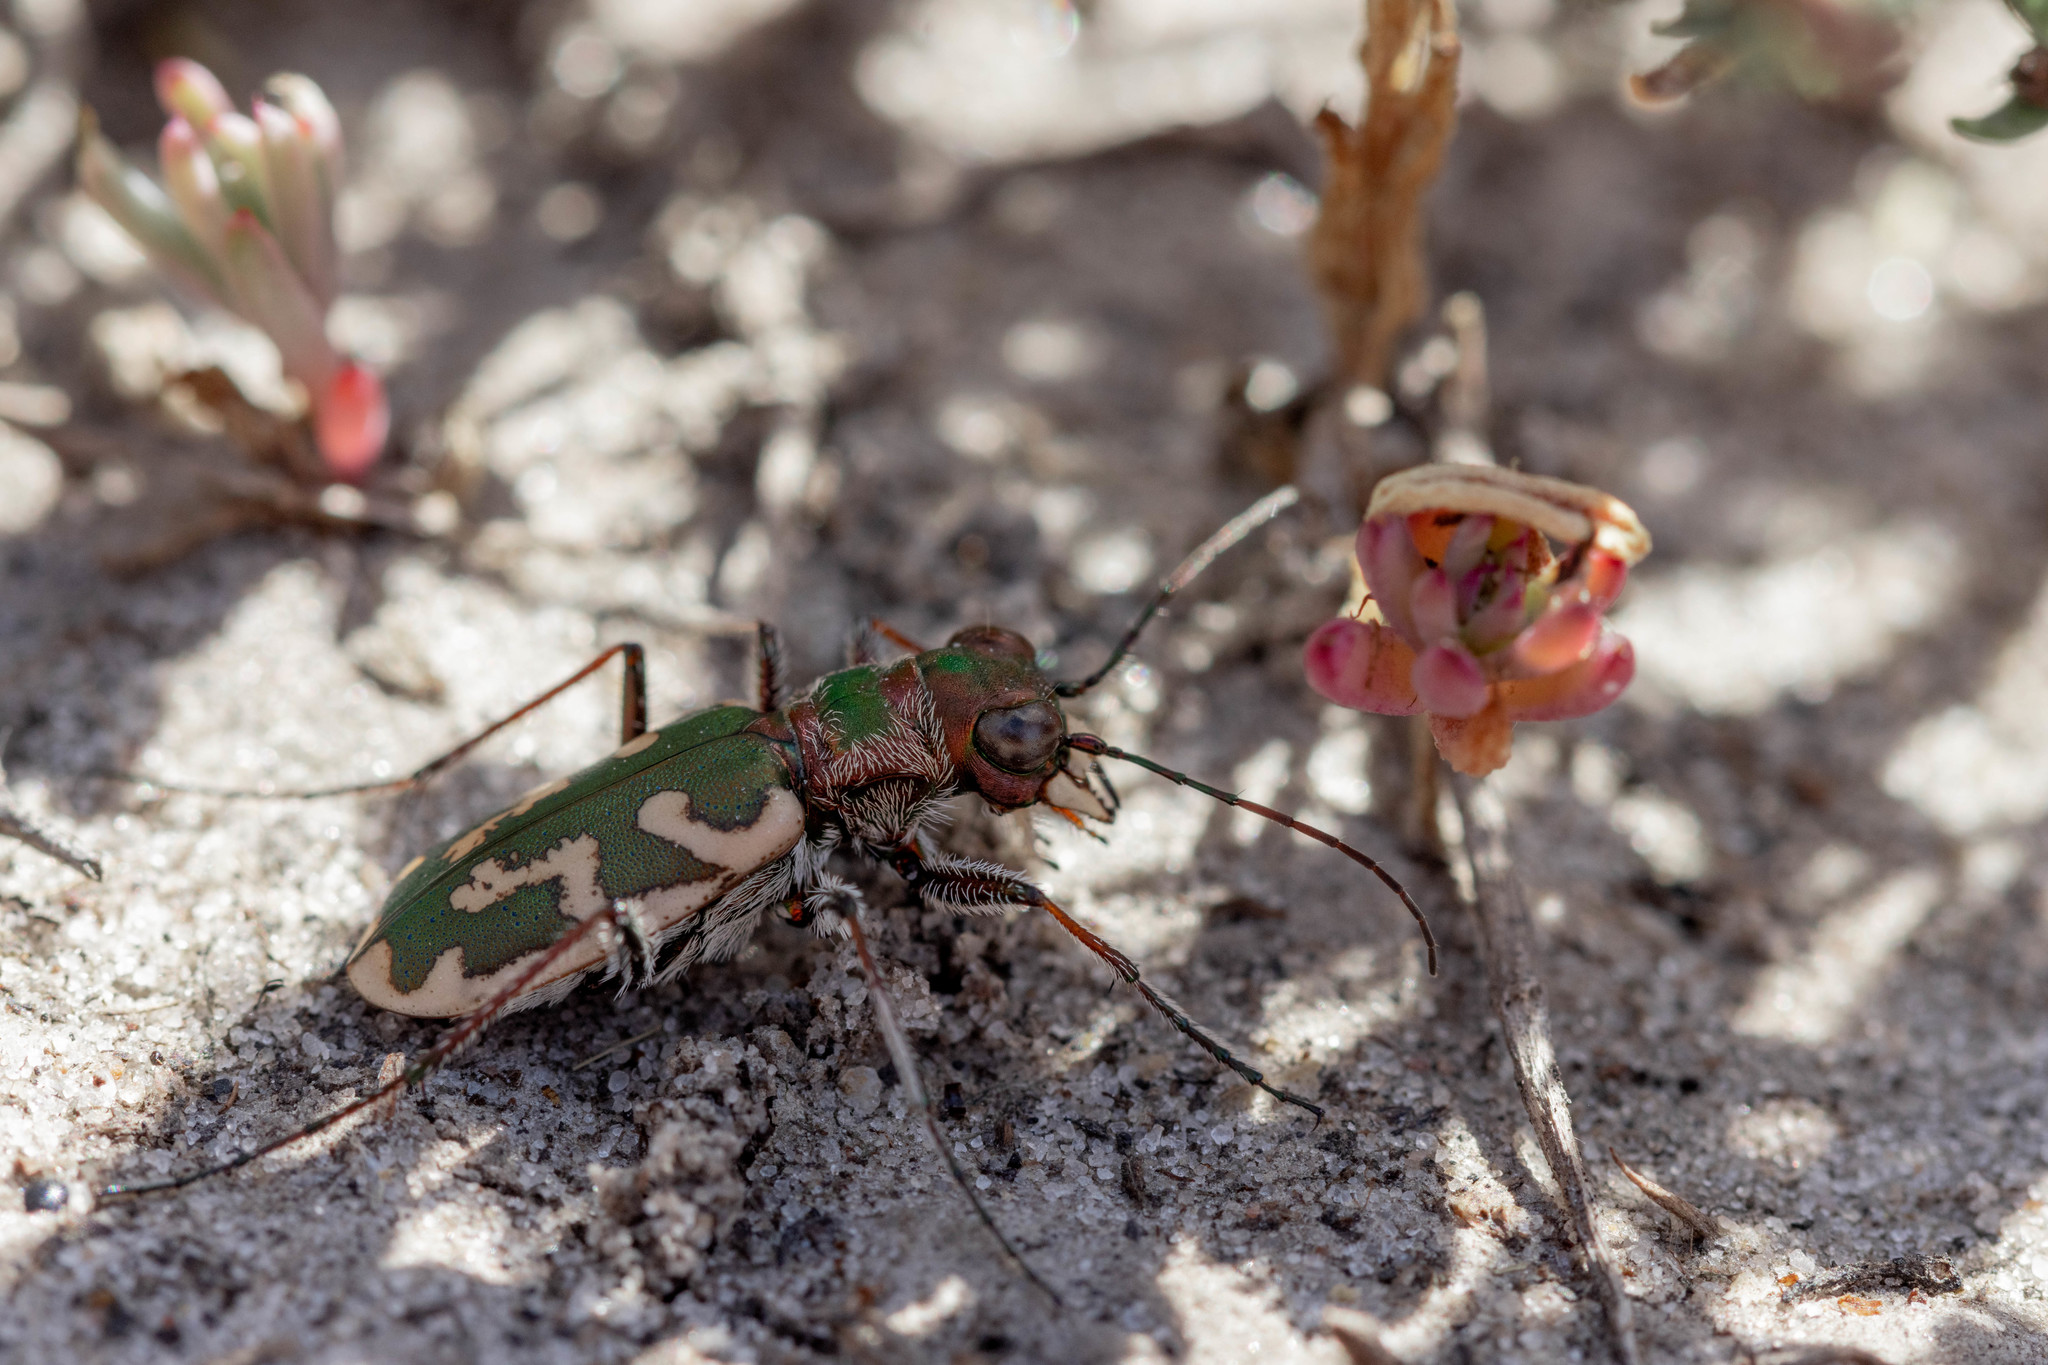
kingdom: Animalia
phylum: Arthropoda
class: Insecta
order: Coleoptera
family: Carabidae
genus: Cephalota
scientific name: Cephalota besseri
